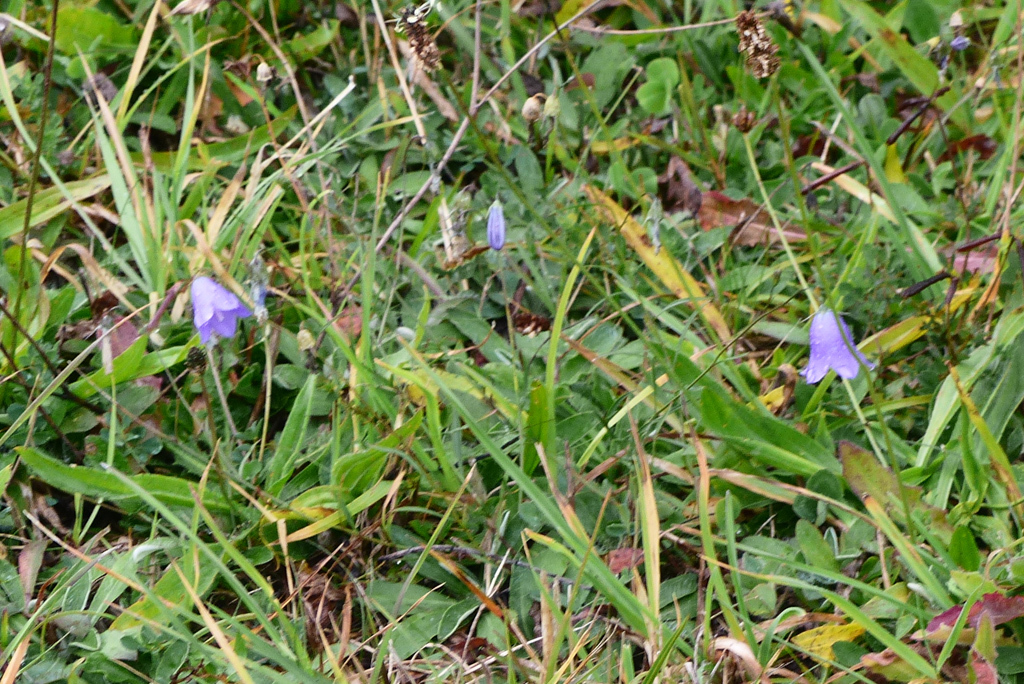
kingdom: Plantae
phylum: Tracheophyta
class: Magnoliopsida
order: Asterales
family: Campanulaceae
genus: Campanula
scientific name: Campanula rotundifolia
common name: Harebell
